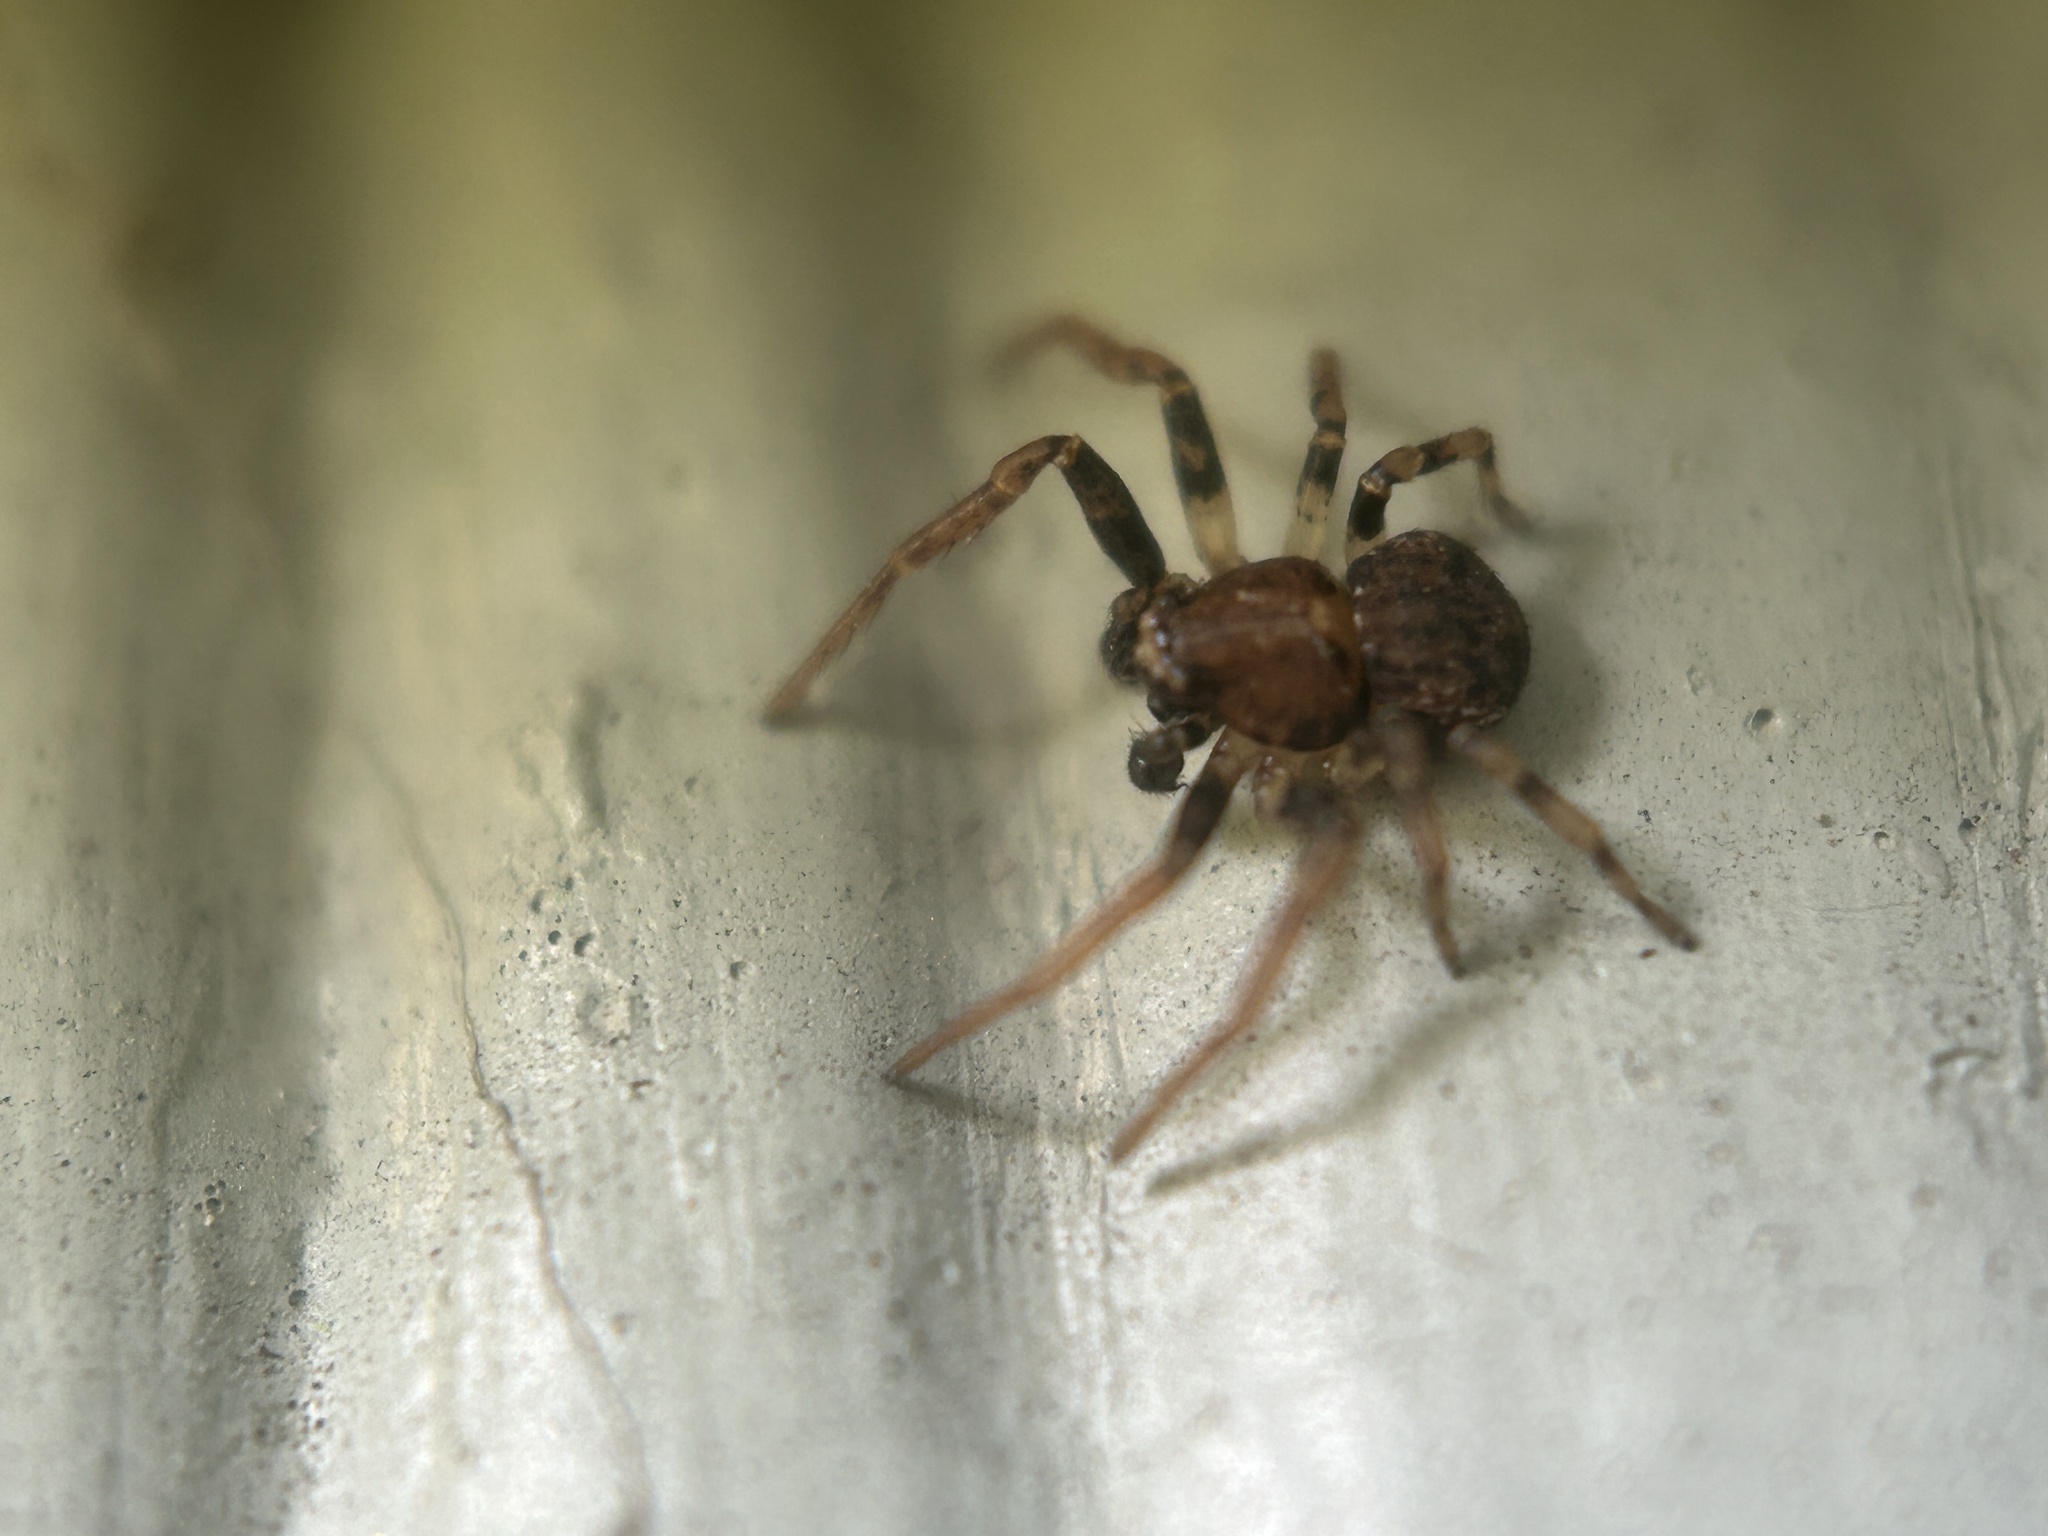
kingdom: Animalia
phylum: Arthropoda
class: Arachnida
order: Araneae
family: Thomisidae
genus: Ozyptila
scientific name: Ozyptila praticola
